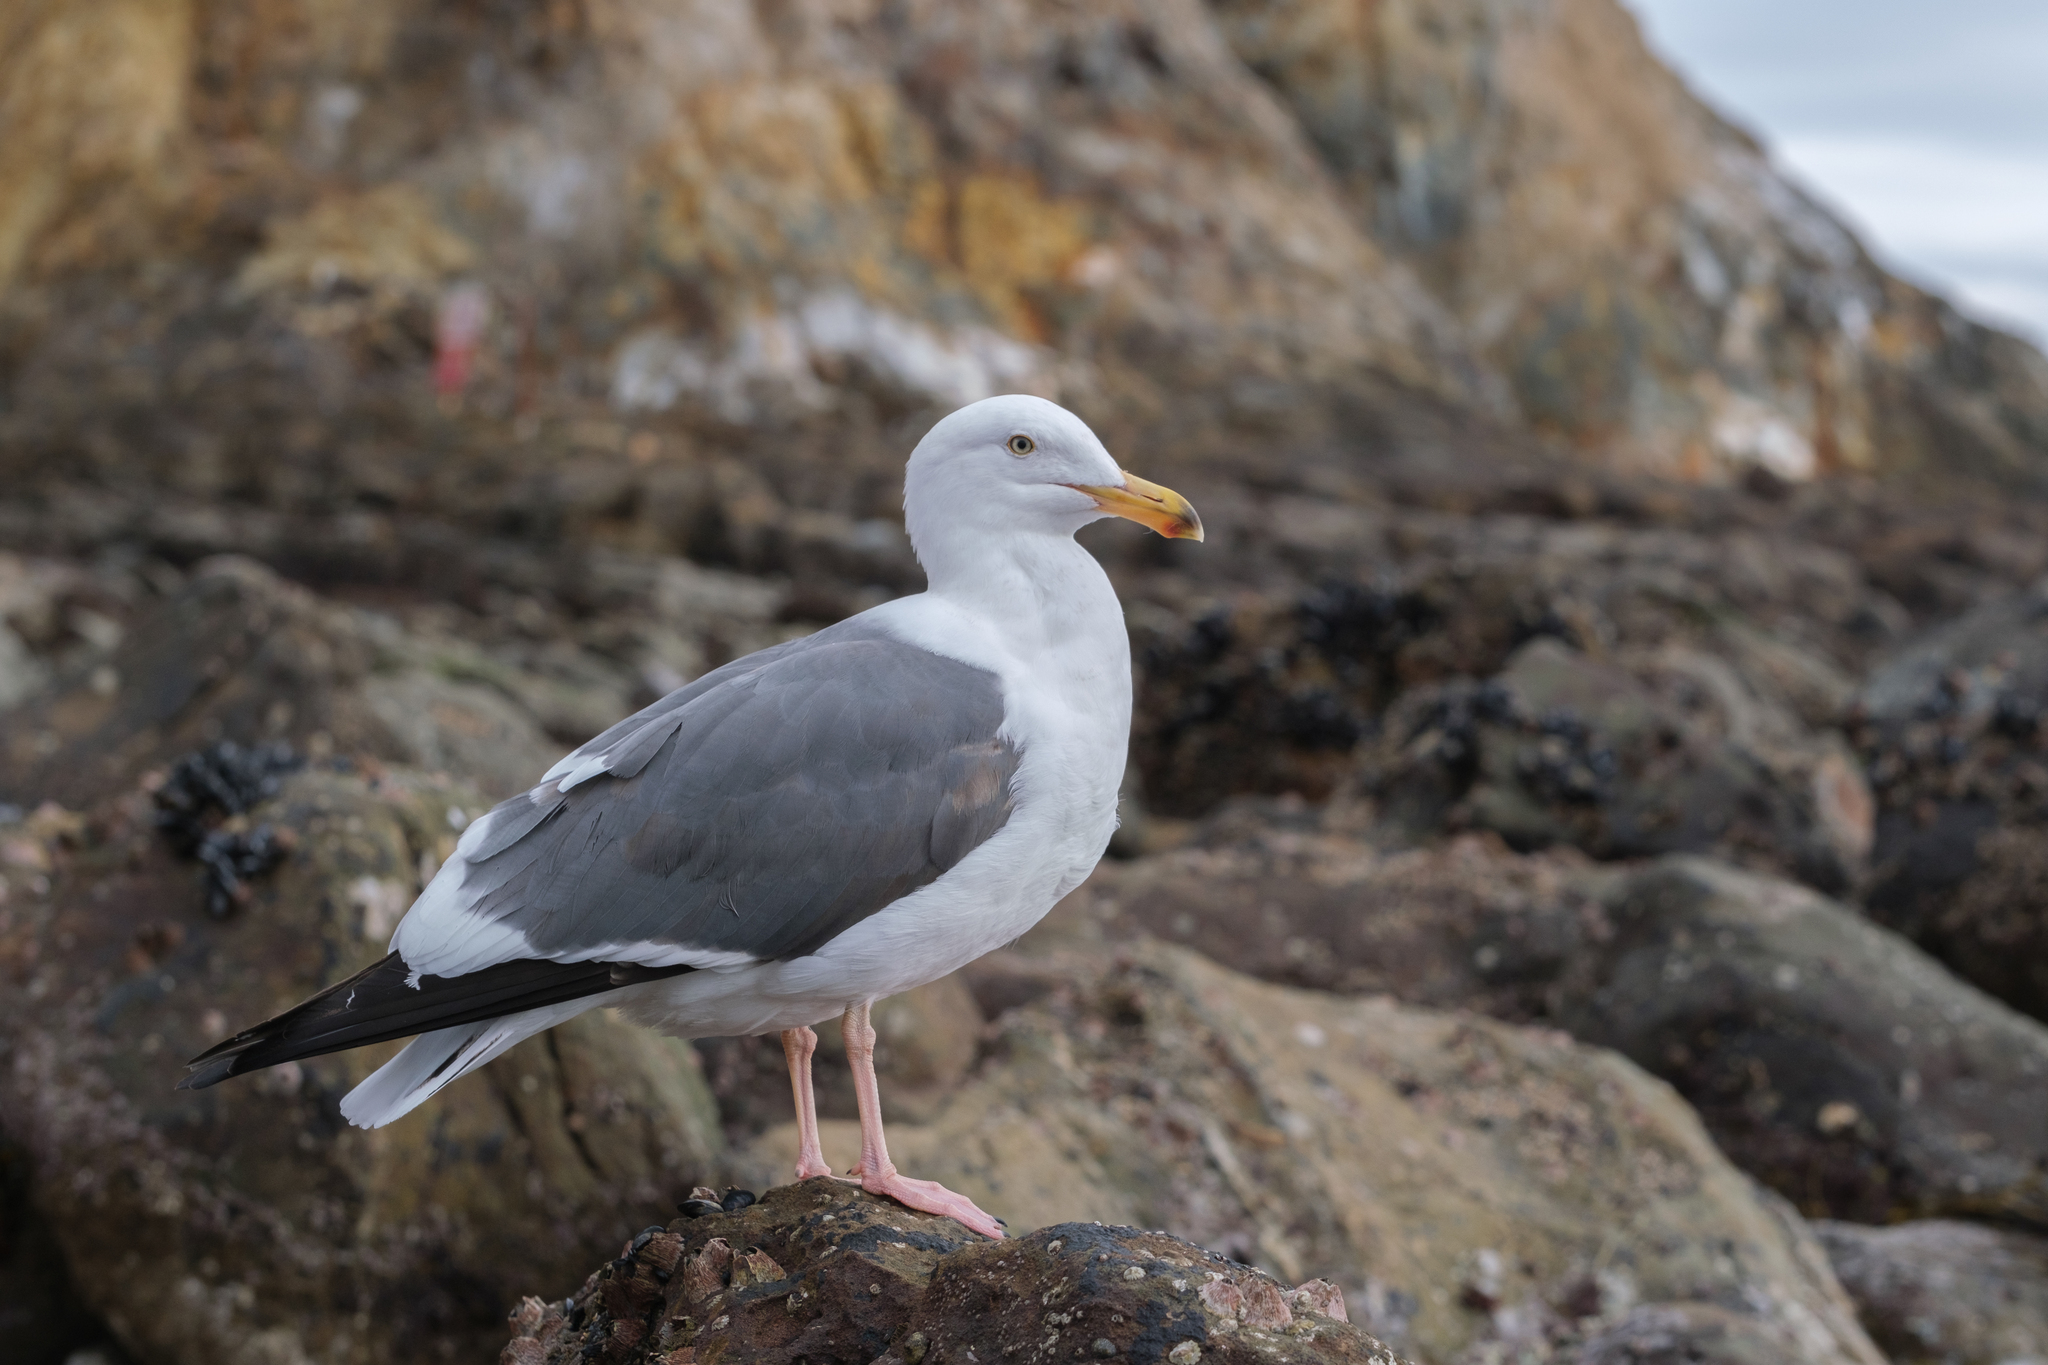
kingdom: Animalia
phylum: Chordata
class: Aves
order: Charadriiformes
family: Laridae
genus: Larus
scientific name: Larus occidentalis
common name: Western gull
